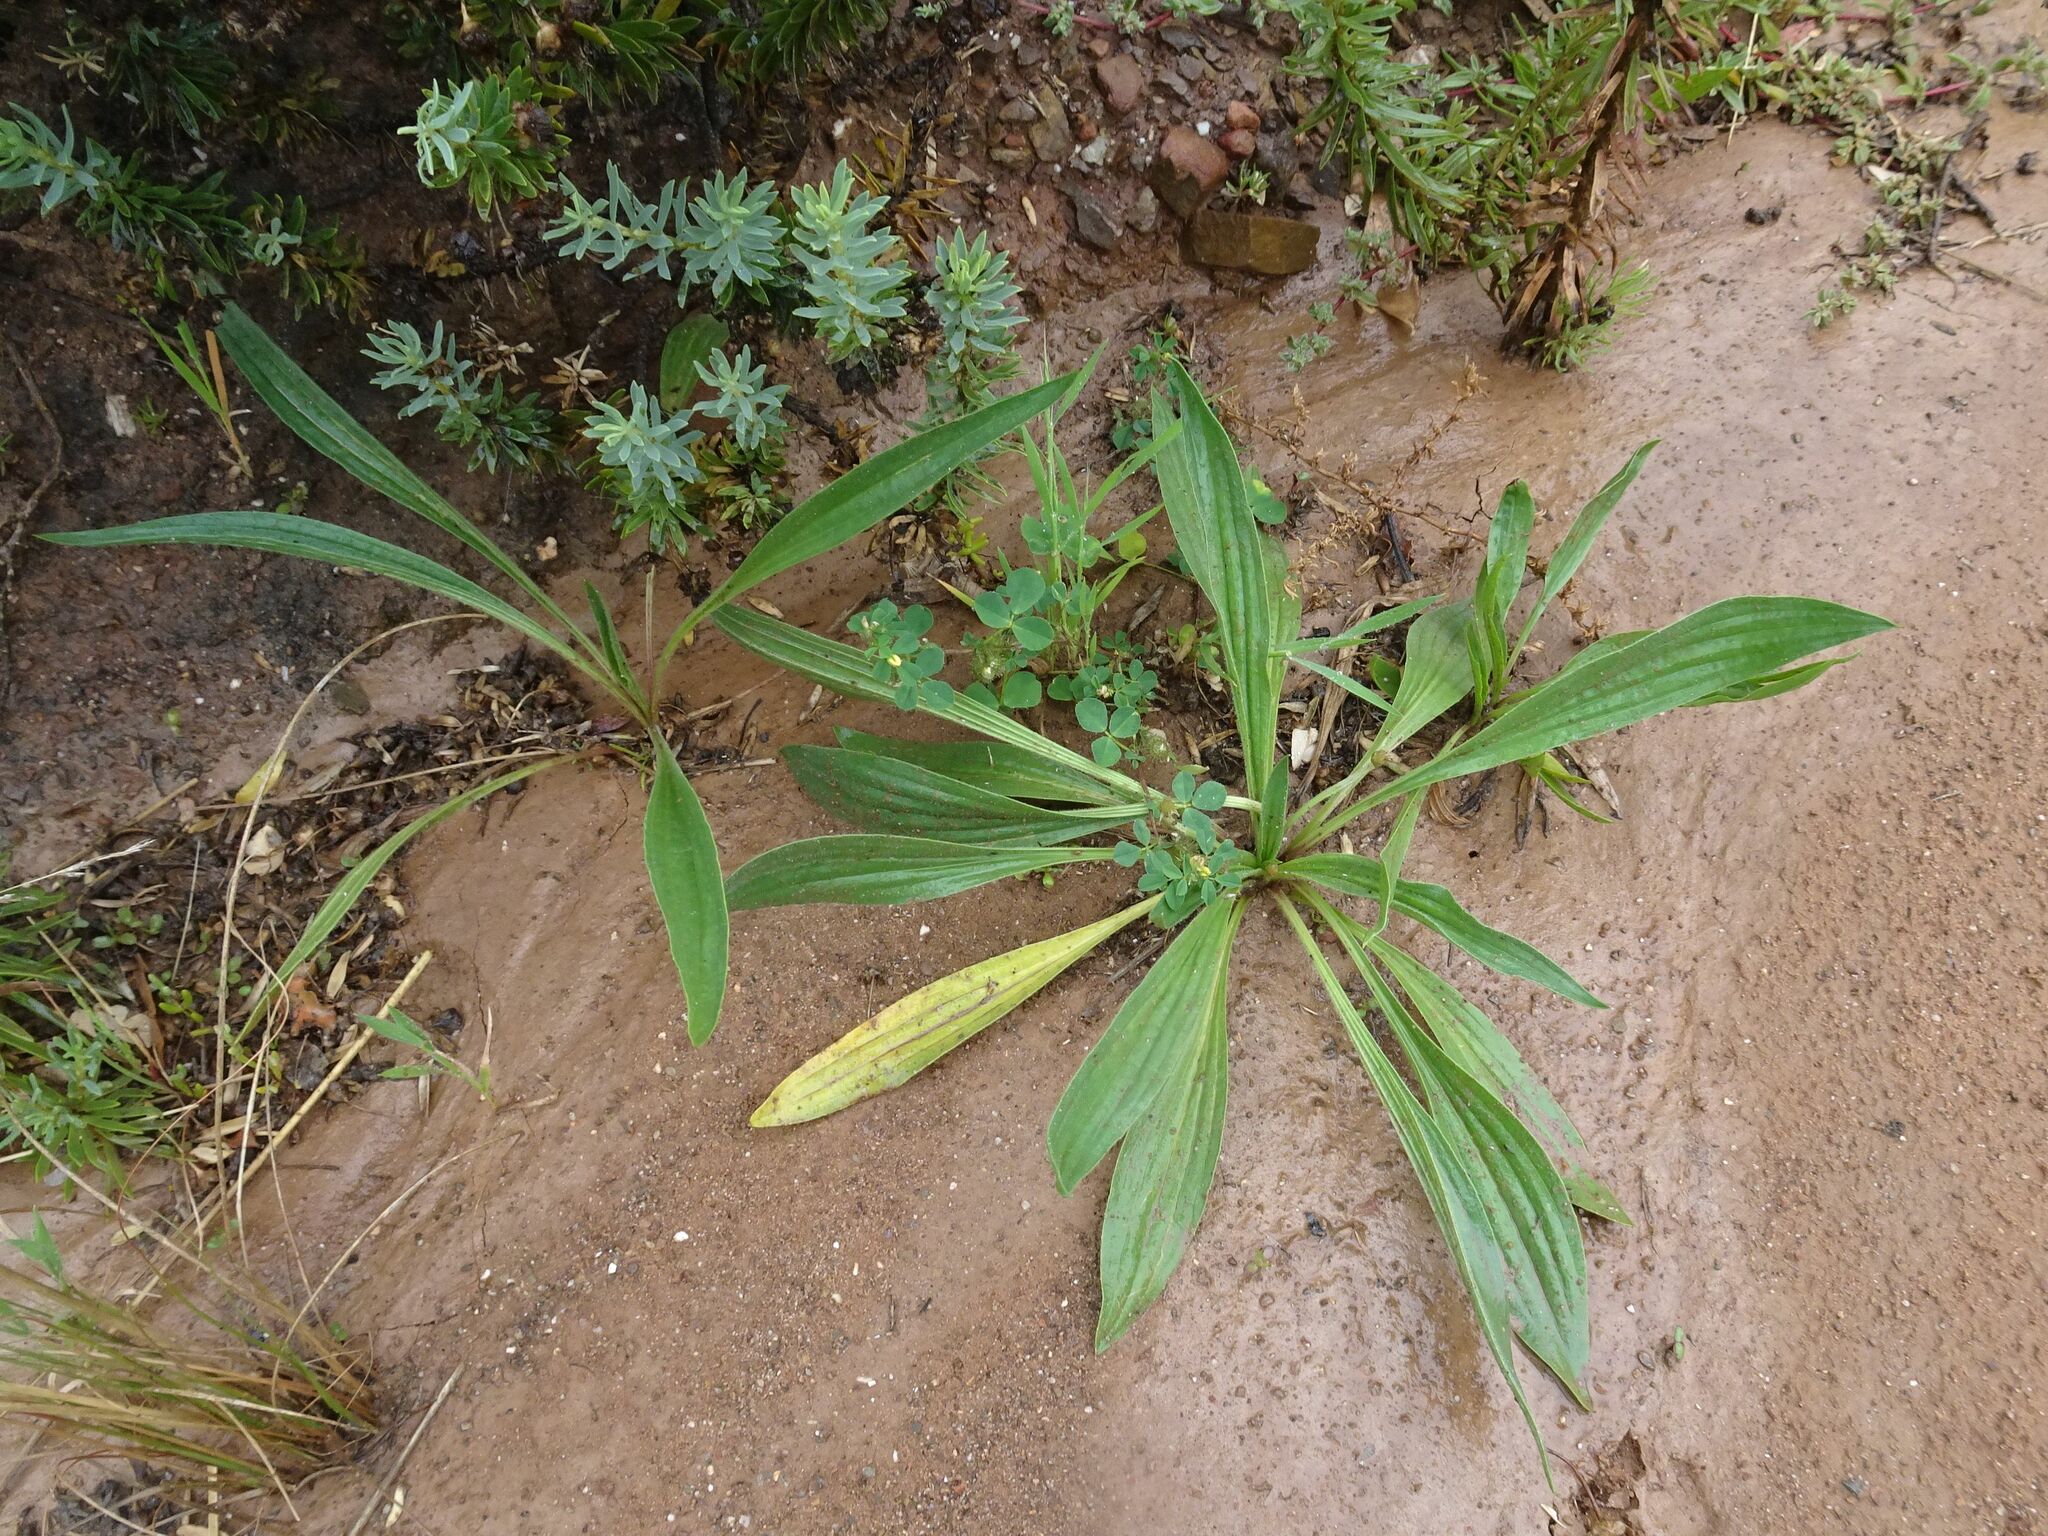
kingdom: Plantae
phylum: Tracheophyta
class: Magnoliopsida
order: Lamiales
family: Plantaginaceae
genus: Plantago
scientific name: Plantago lanceolata
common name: Ribwort plantain
